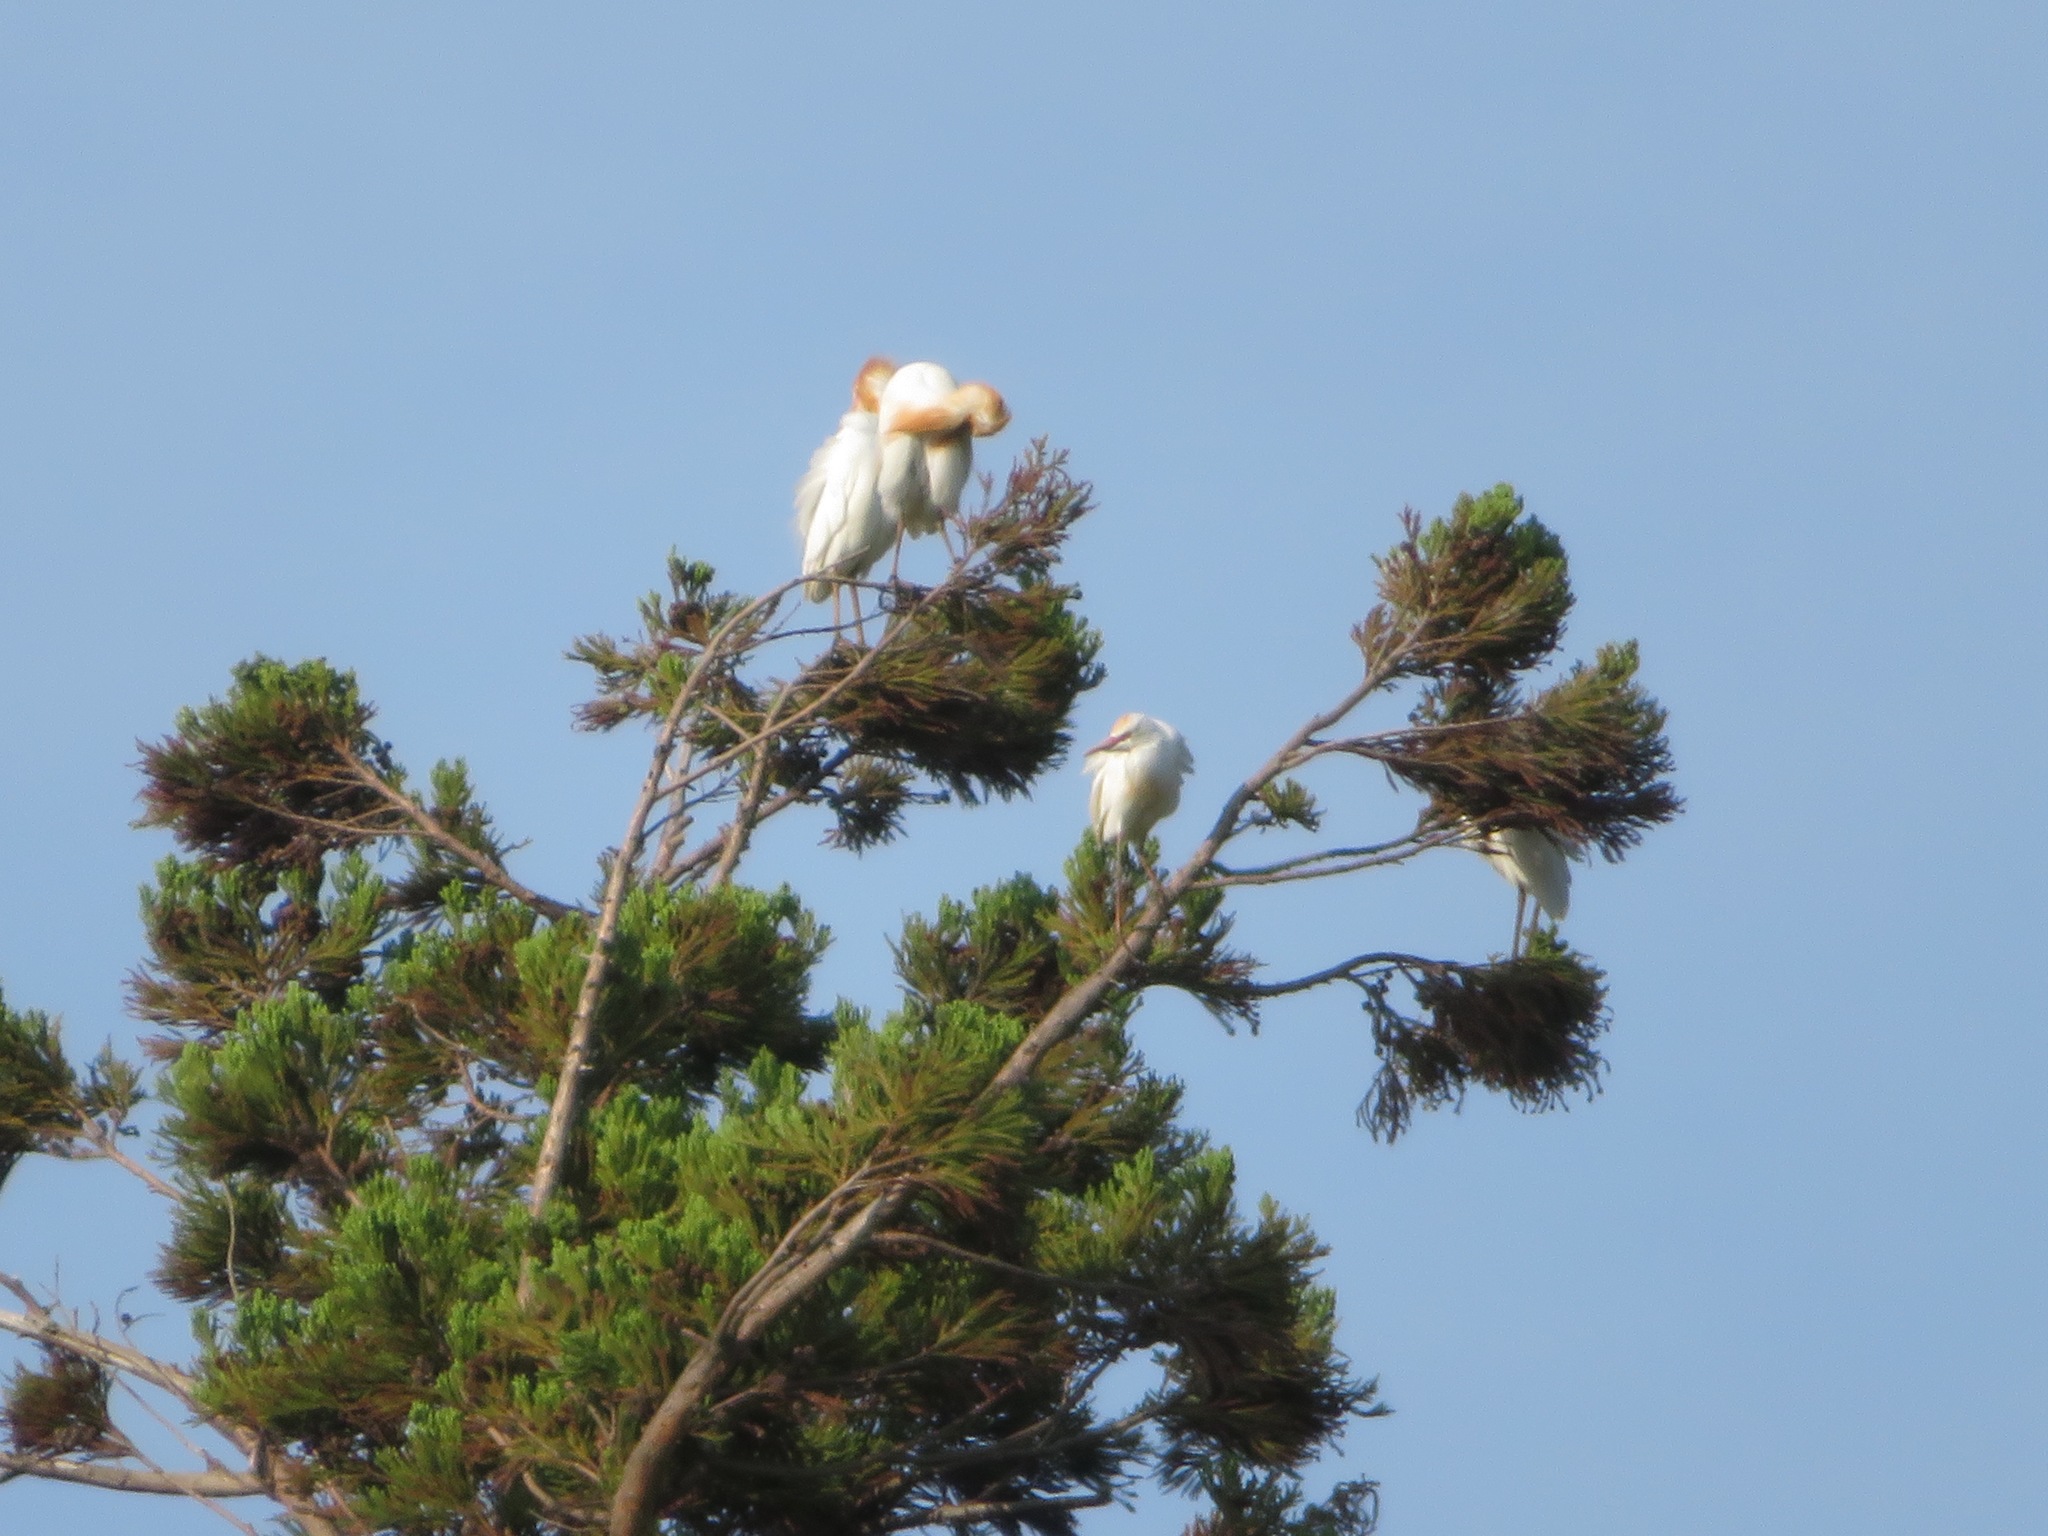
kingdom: Animalia
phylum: Chordata
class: Aves
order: Pelecaniformes
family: Ardeidae
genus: Bubulcus
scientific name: Bubulcus coromandus
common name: Eastern cattle egret
